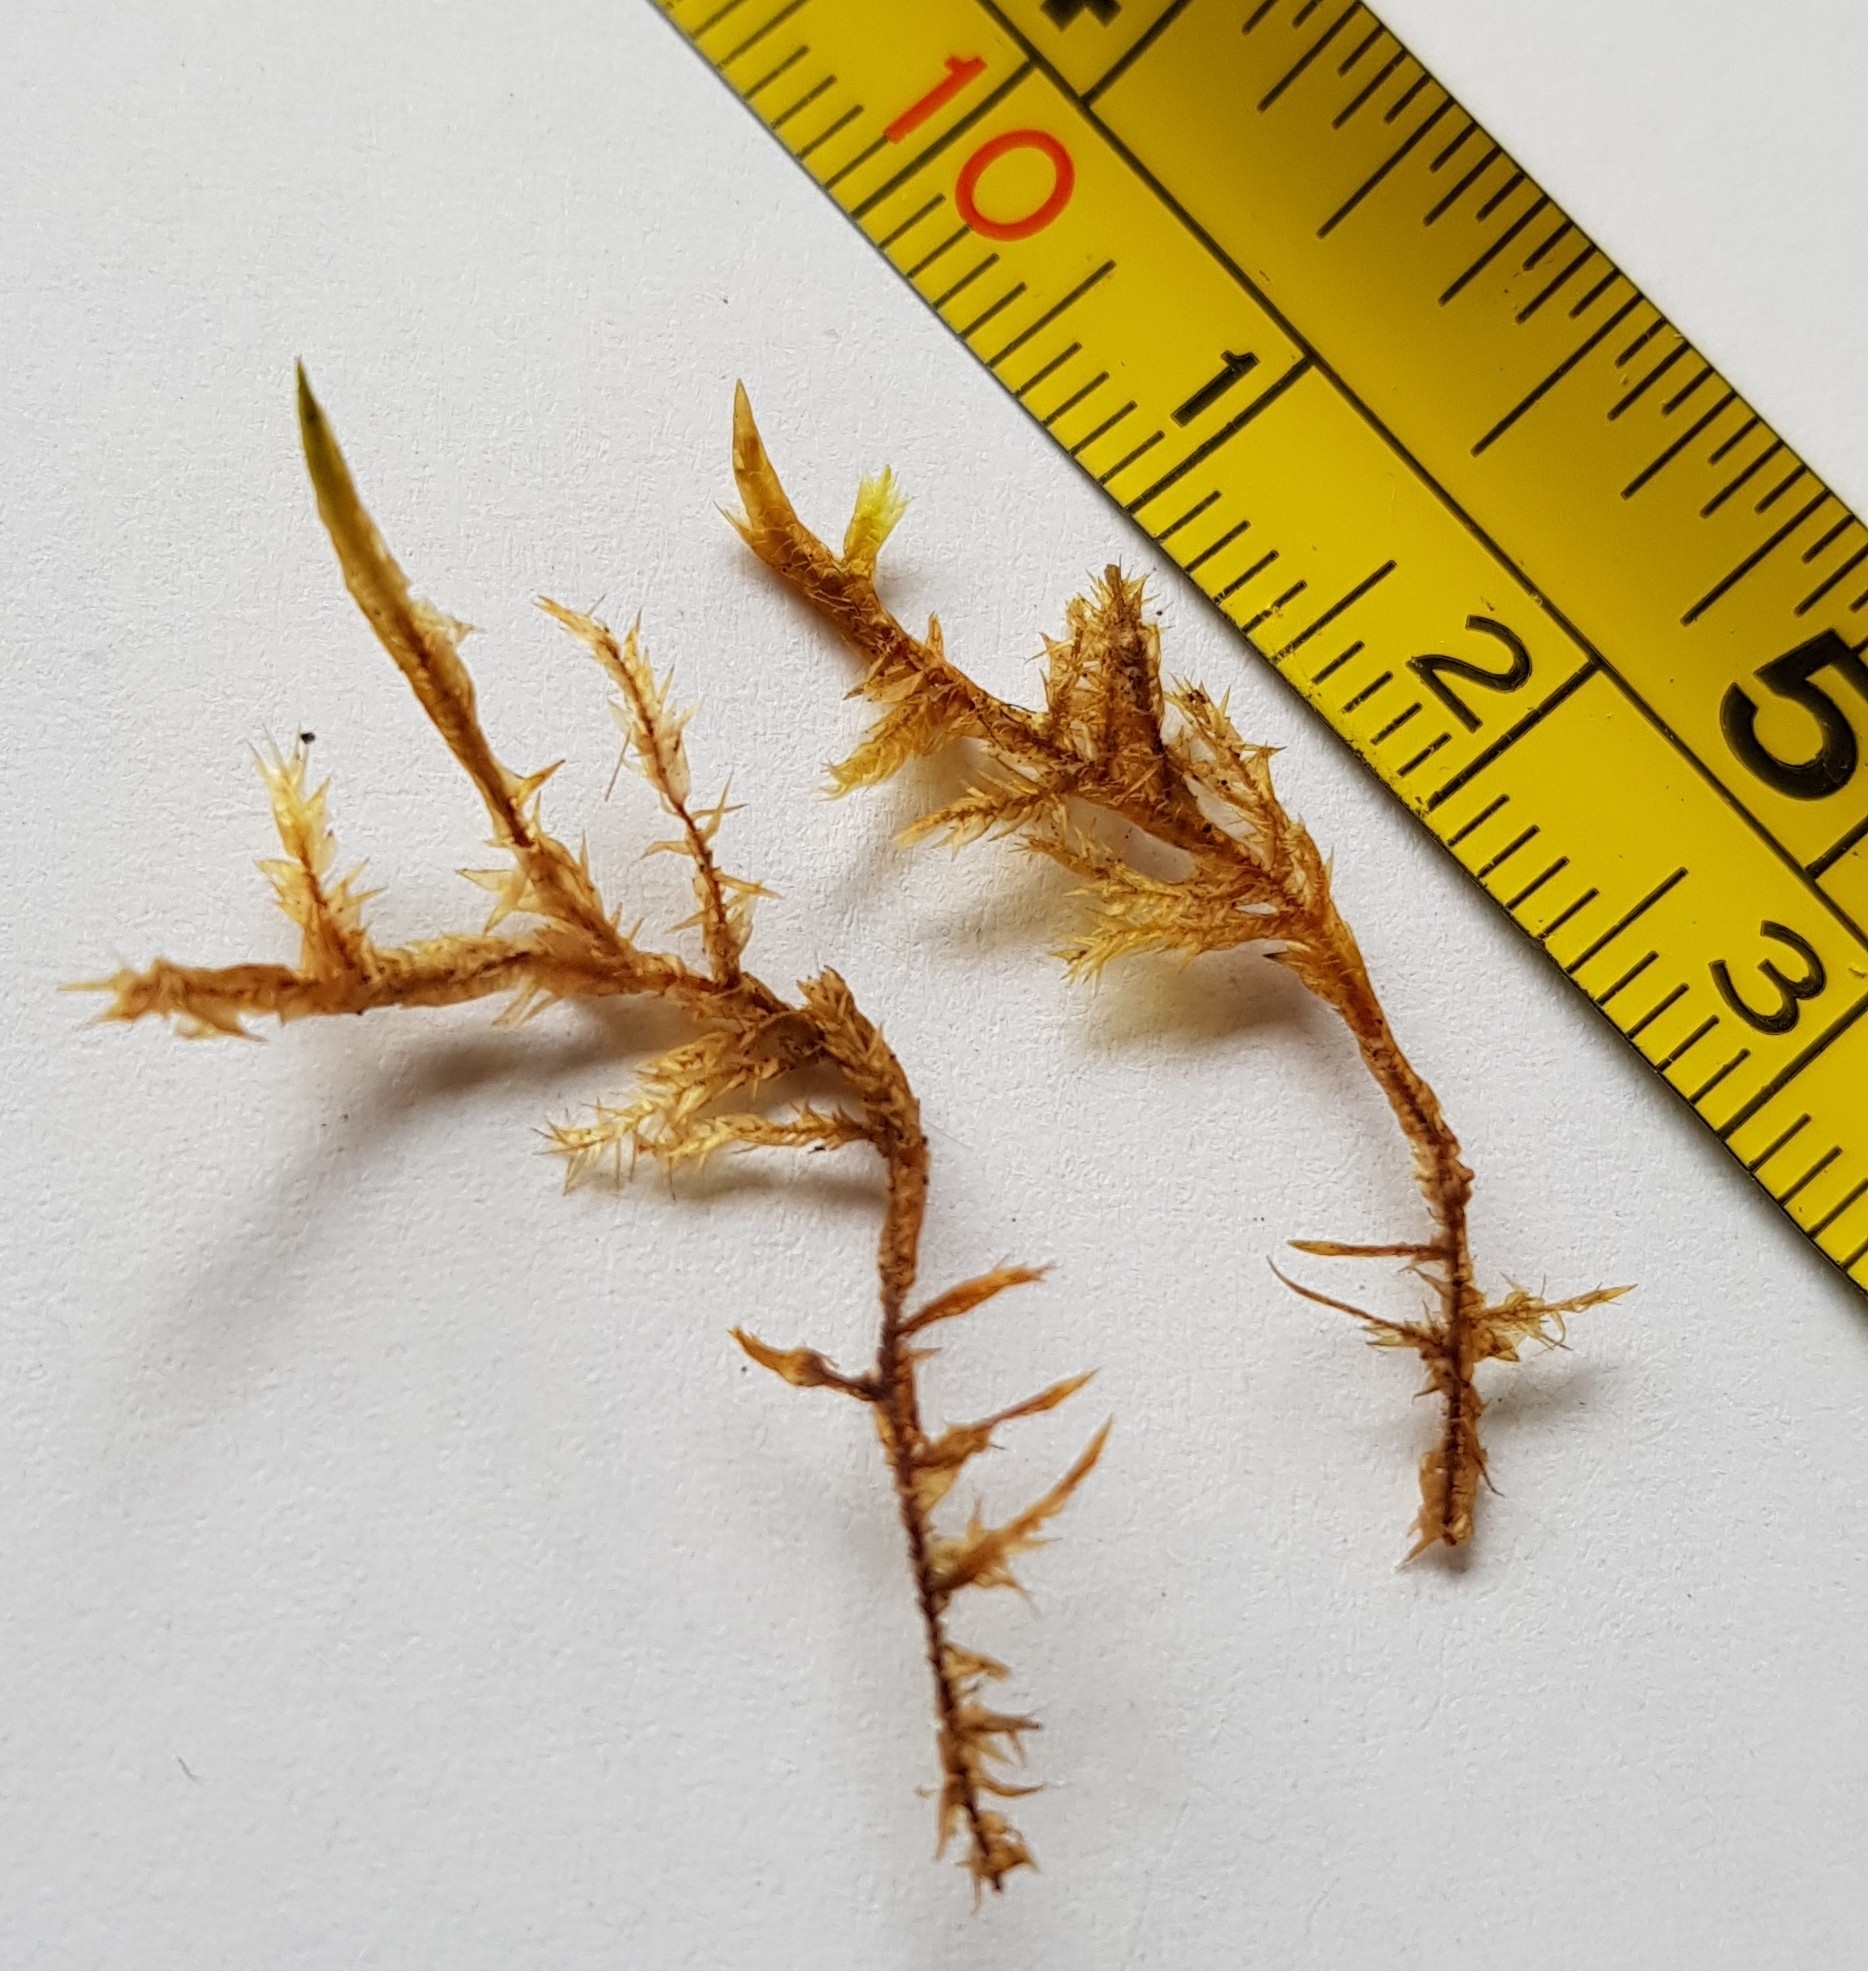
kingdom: Plantae
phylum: Bryophyta
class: Bryopsida
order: Hypnales
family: Pylaisiaceae
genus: Calliergonella
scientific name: Calliergonella cuspidata
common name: Common large wetland moss
